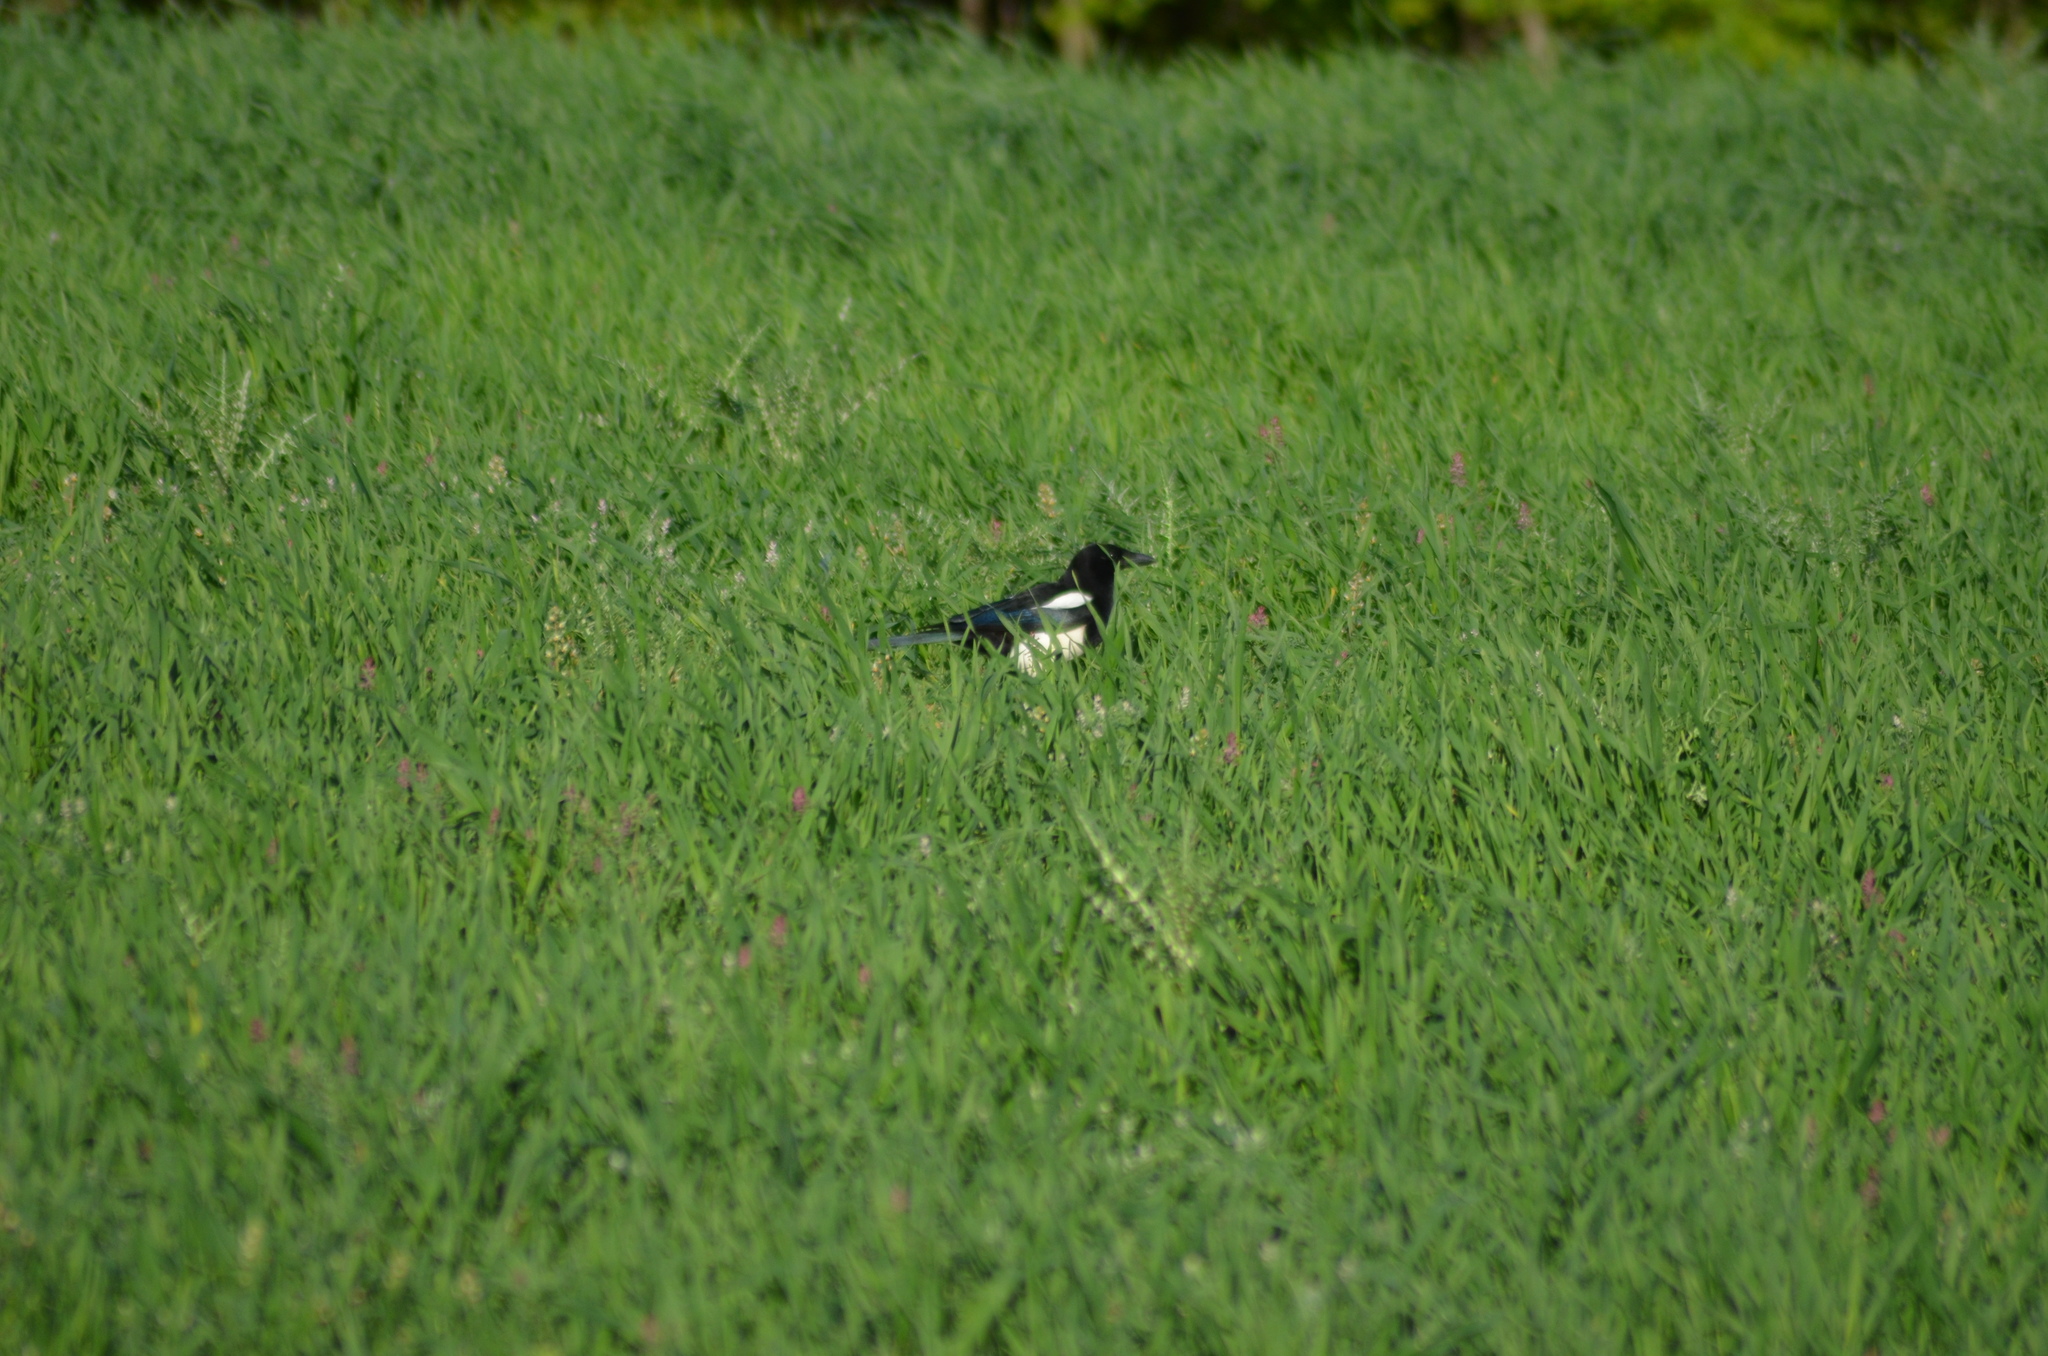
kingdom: Animalia
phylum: Chordata
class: Aves
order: Passeriformes
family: Corvidae
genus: Pica
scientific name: Pica pica
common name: Eurasian magpie
